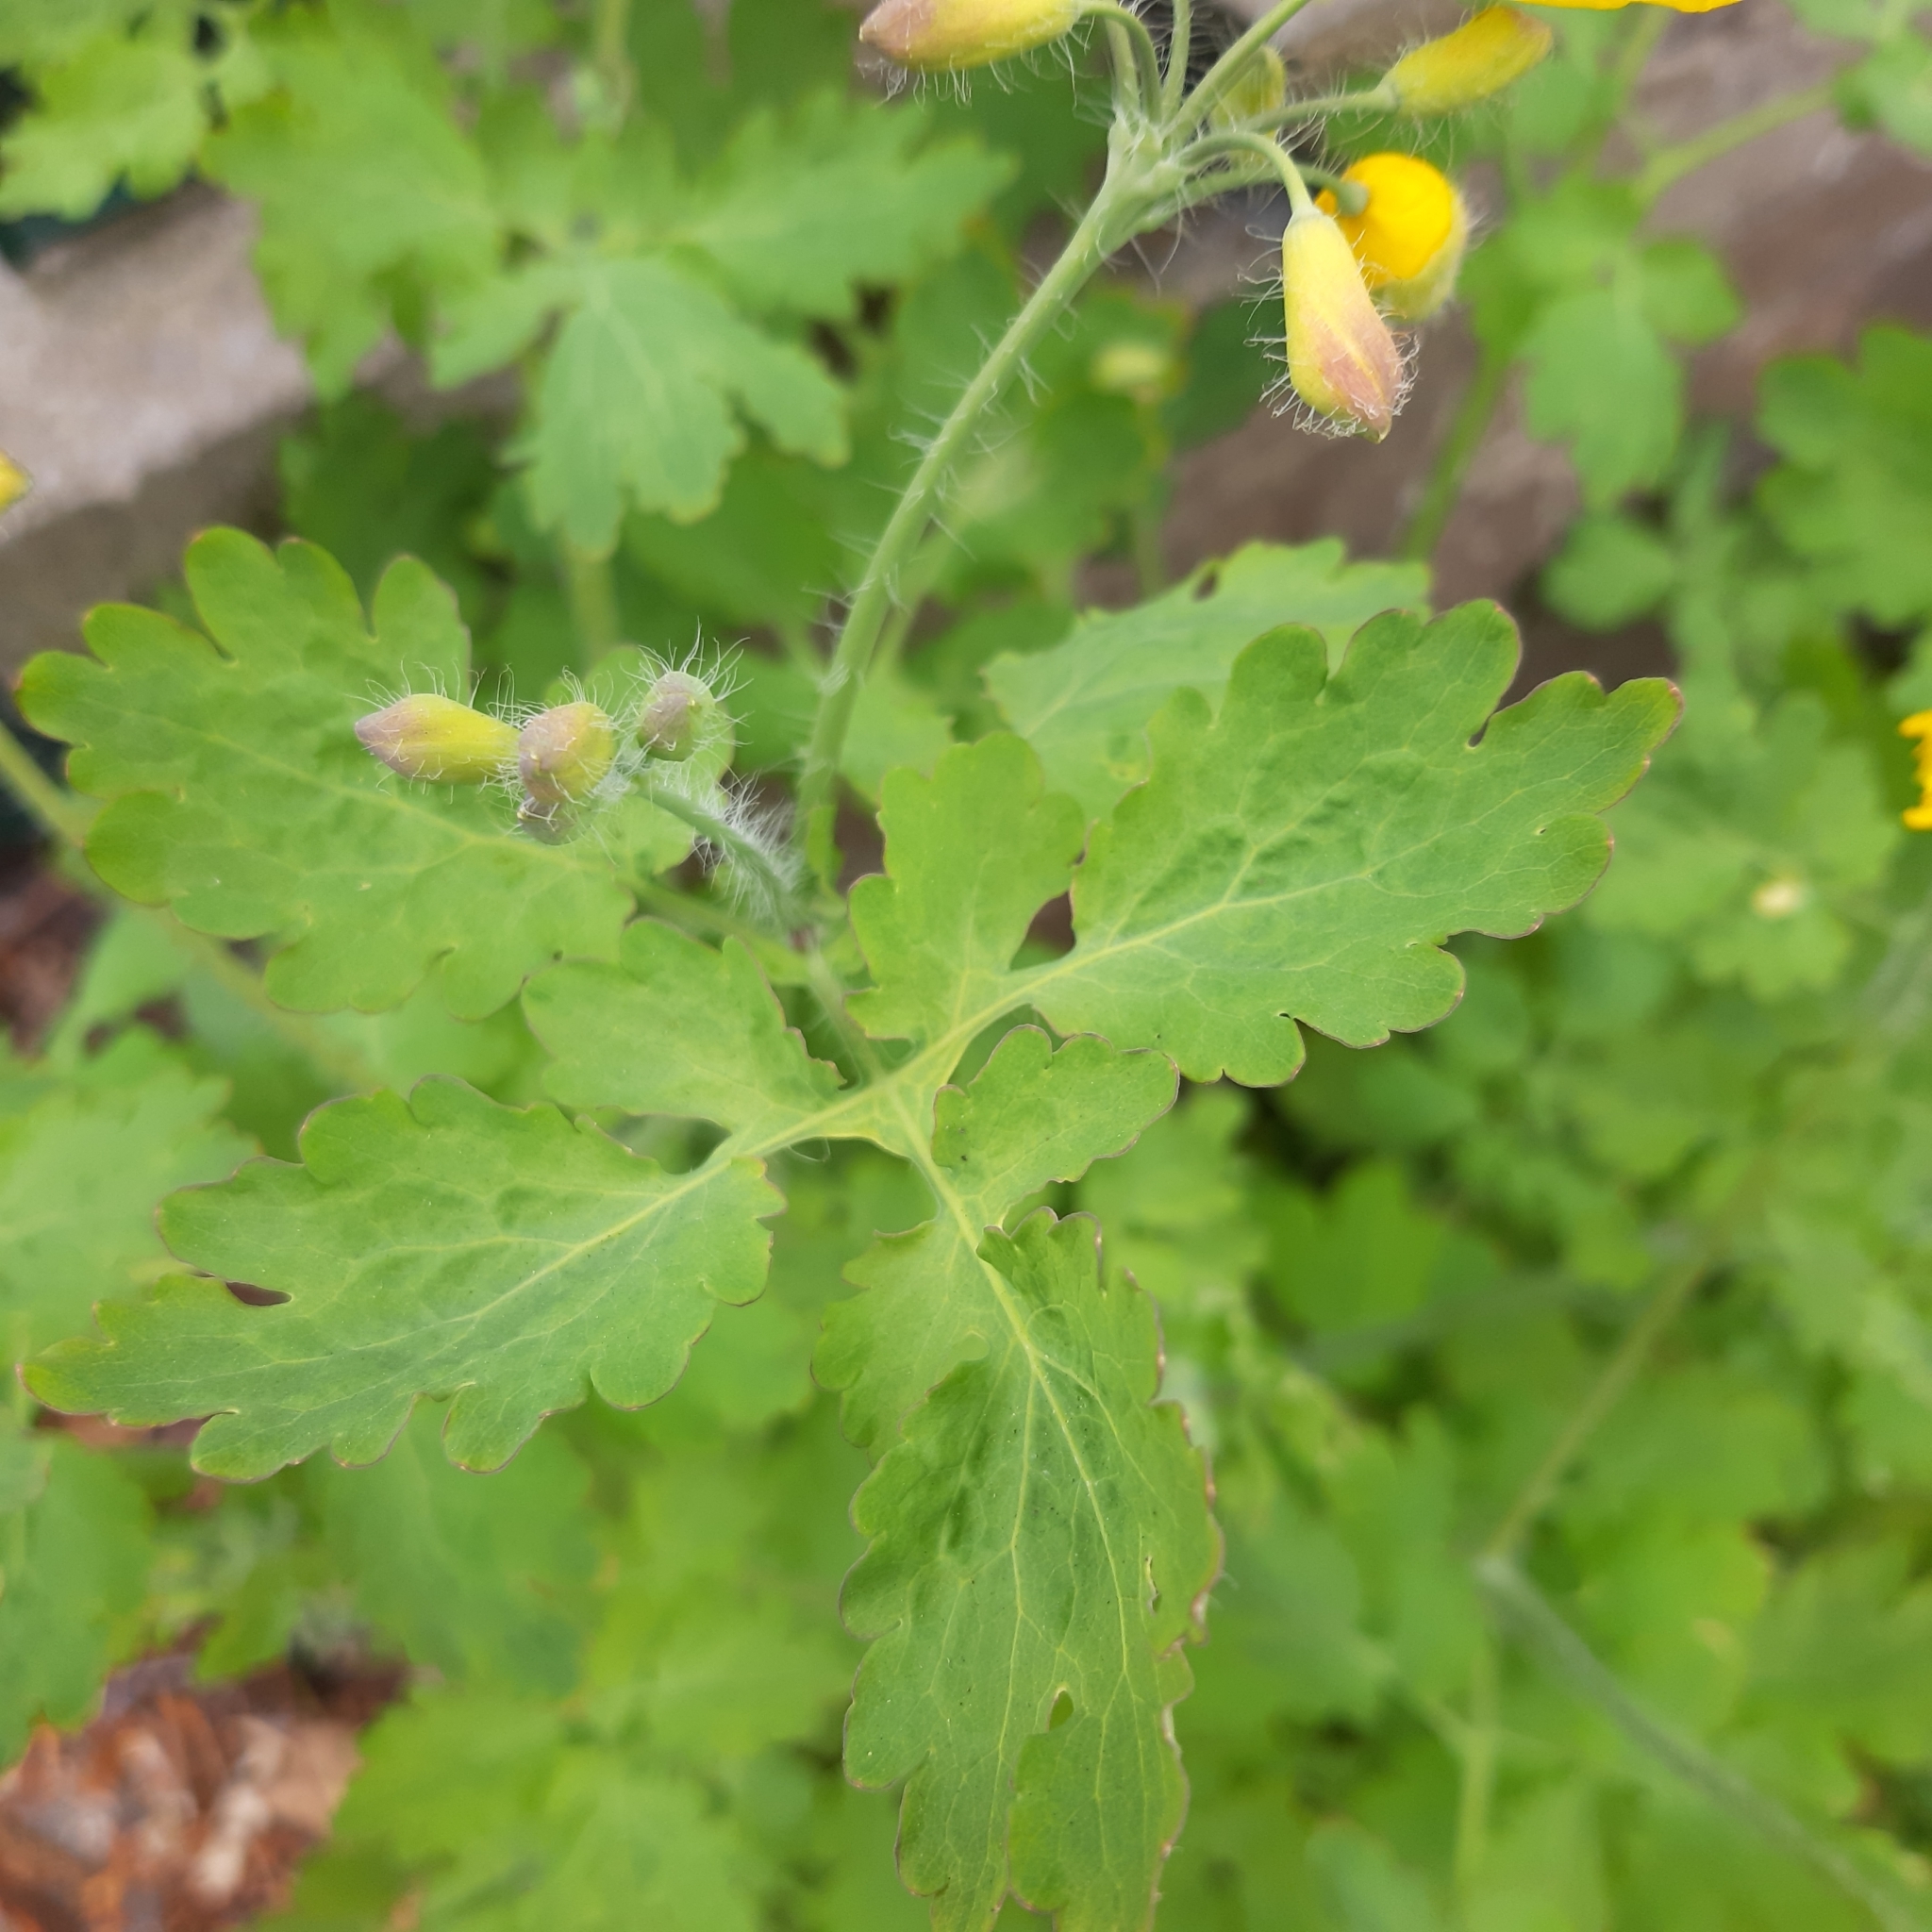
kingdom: Plantae
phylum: Tracheophyta
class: Magnoliopsida
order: Ranunculales
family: Papaveraceae
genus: Chelidonium
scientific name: Chelidonium majus
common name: Greater celandine
